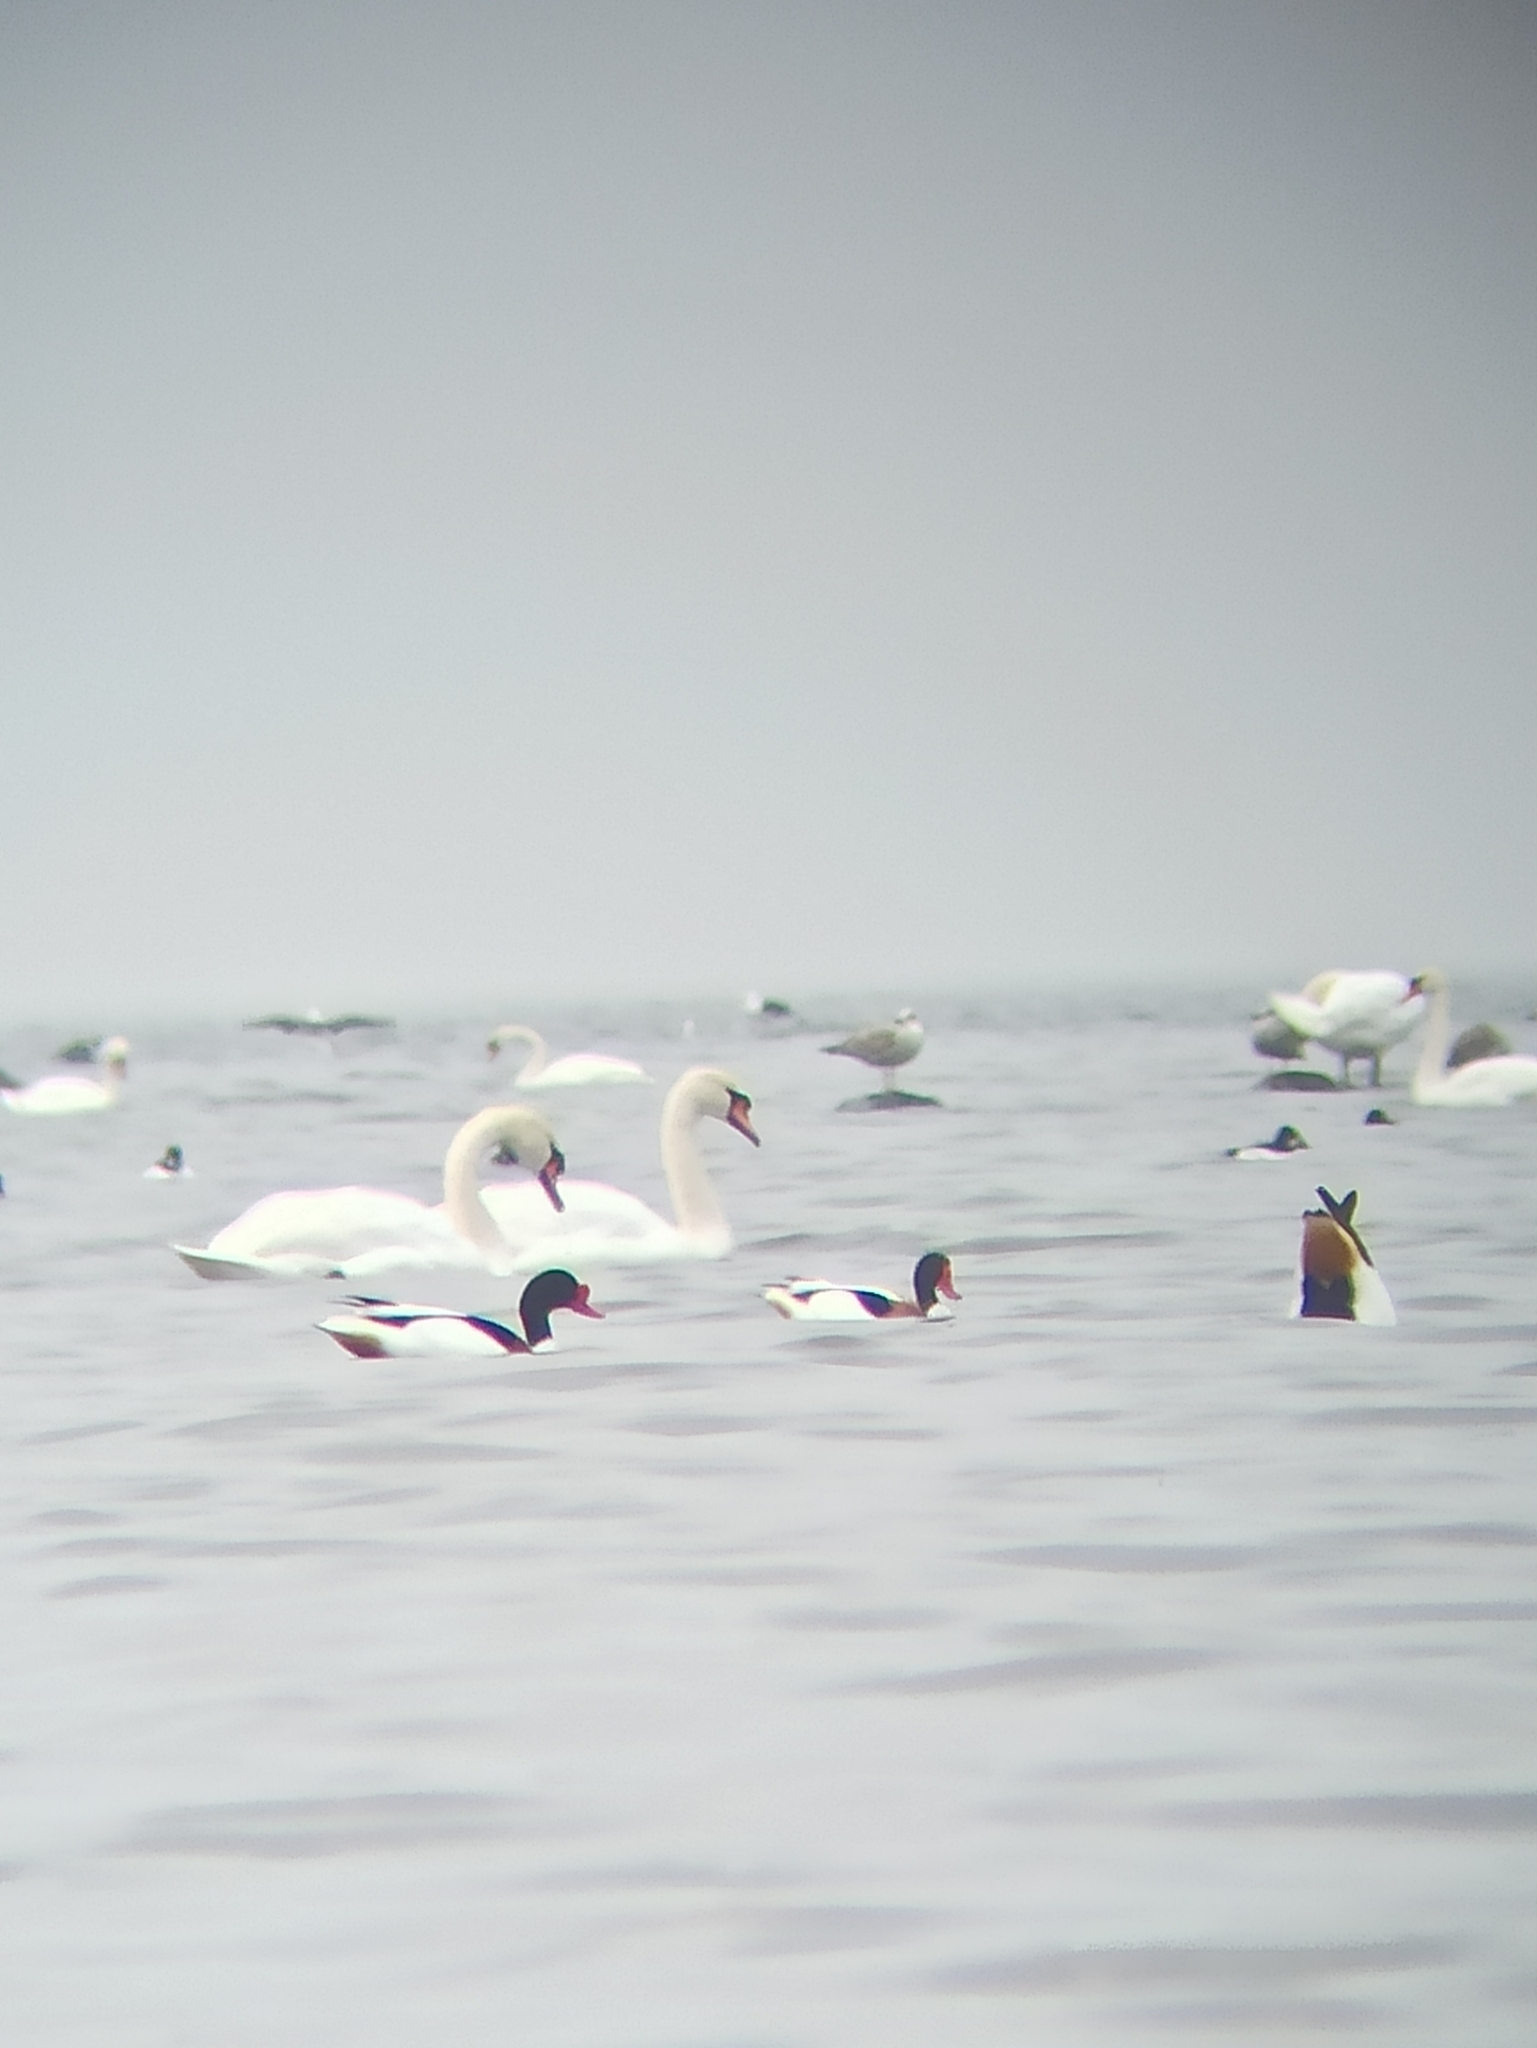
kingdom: Animalia
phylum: Chordata
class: Aves
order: Anseriformes
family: Anatidae
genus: Tadorna
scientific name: Tadorna tadorna
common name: Common shelduck
